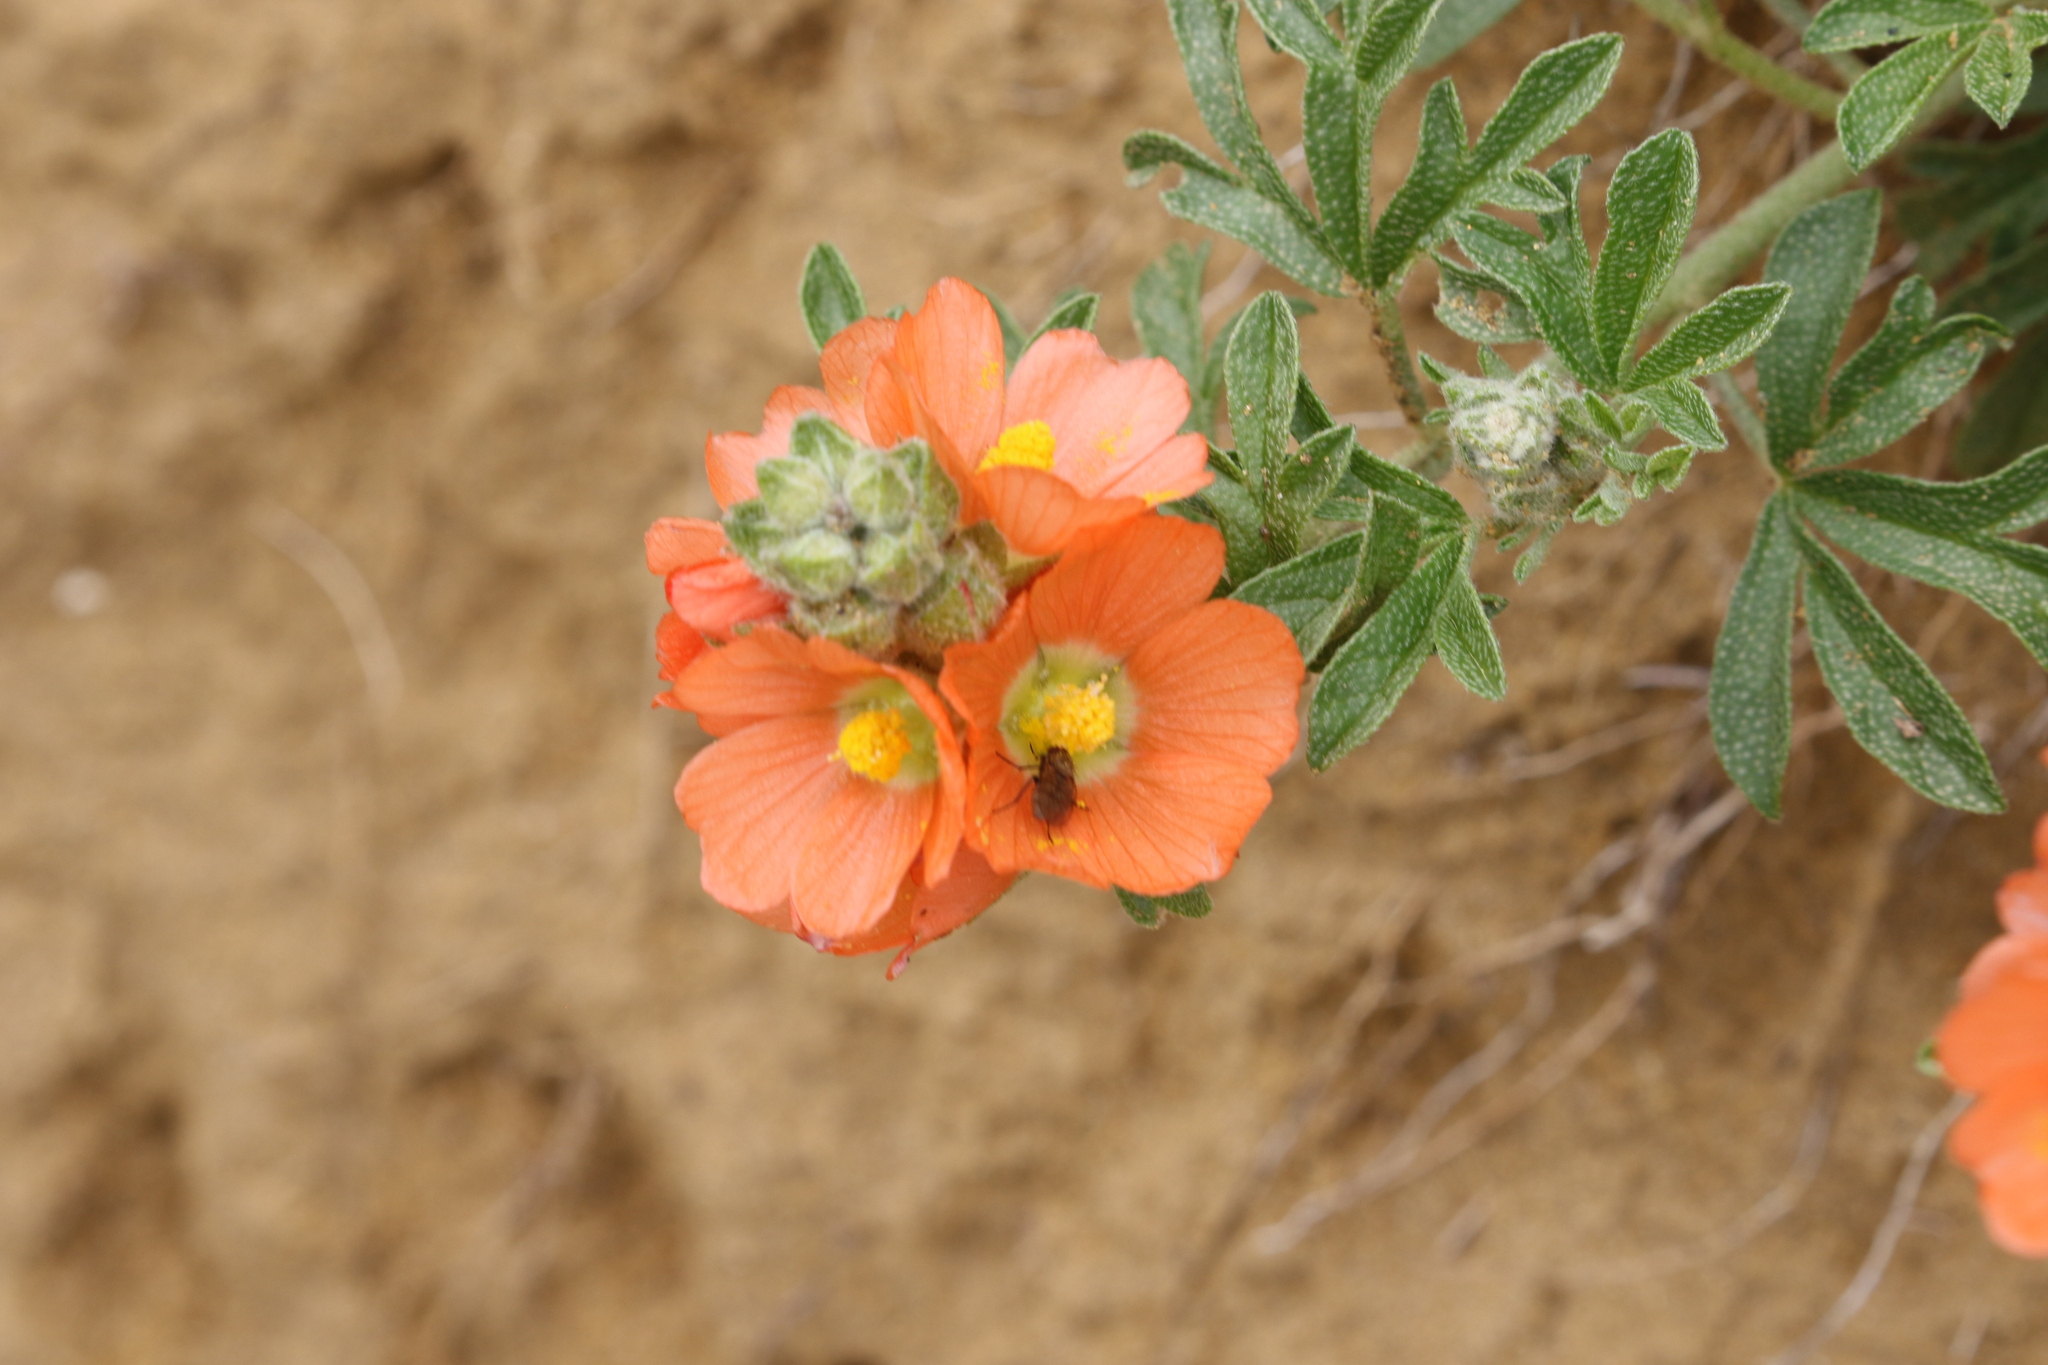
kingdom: Plantae
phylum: Tracheophyta
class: Magnoliopsida
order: Malvales
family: Malvaceae
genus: Sphaeralcea
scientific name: Sphaeralcea coccinea
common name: Moss-rose
